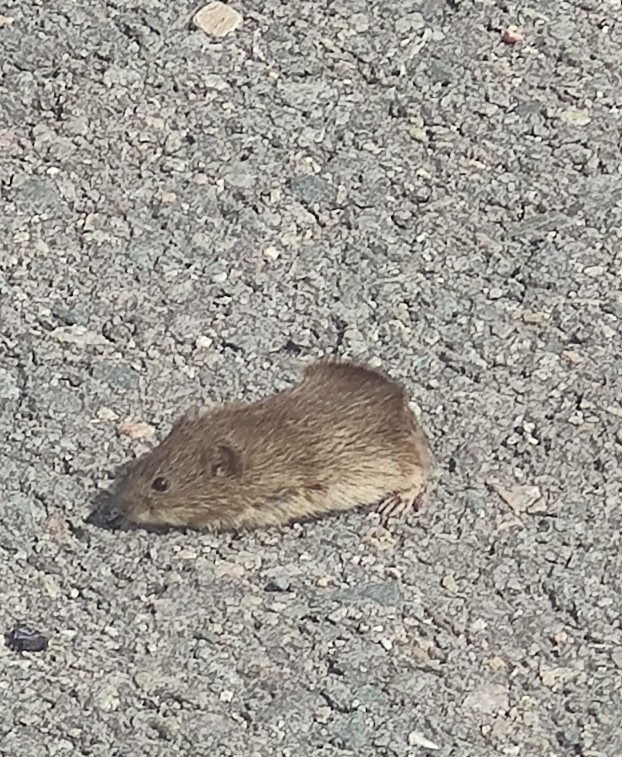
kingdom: Animalia
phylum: Chordata
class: Mammalia
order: Rodentia
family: Cricetidae
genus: Microtus
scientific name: Microtus arvalis
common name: Common vole
